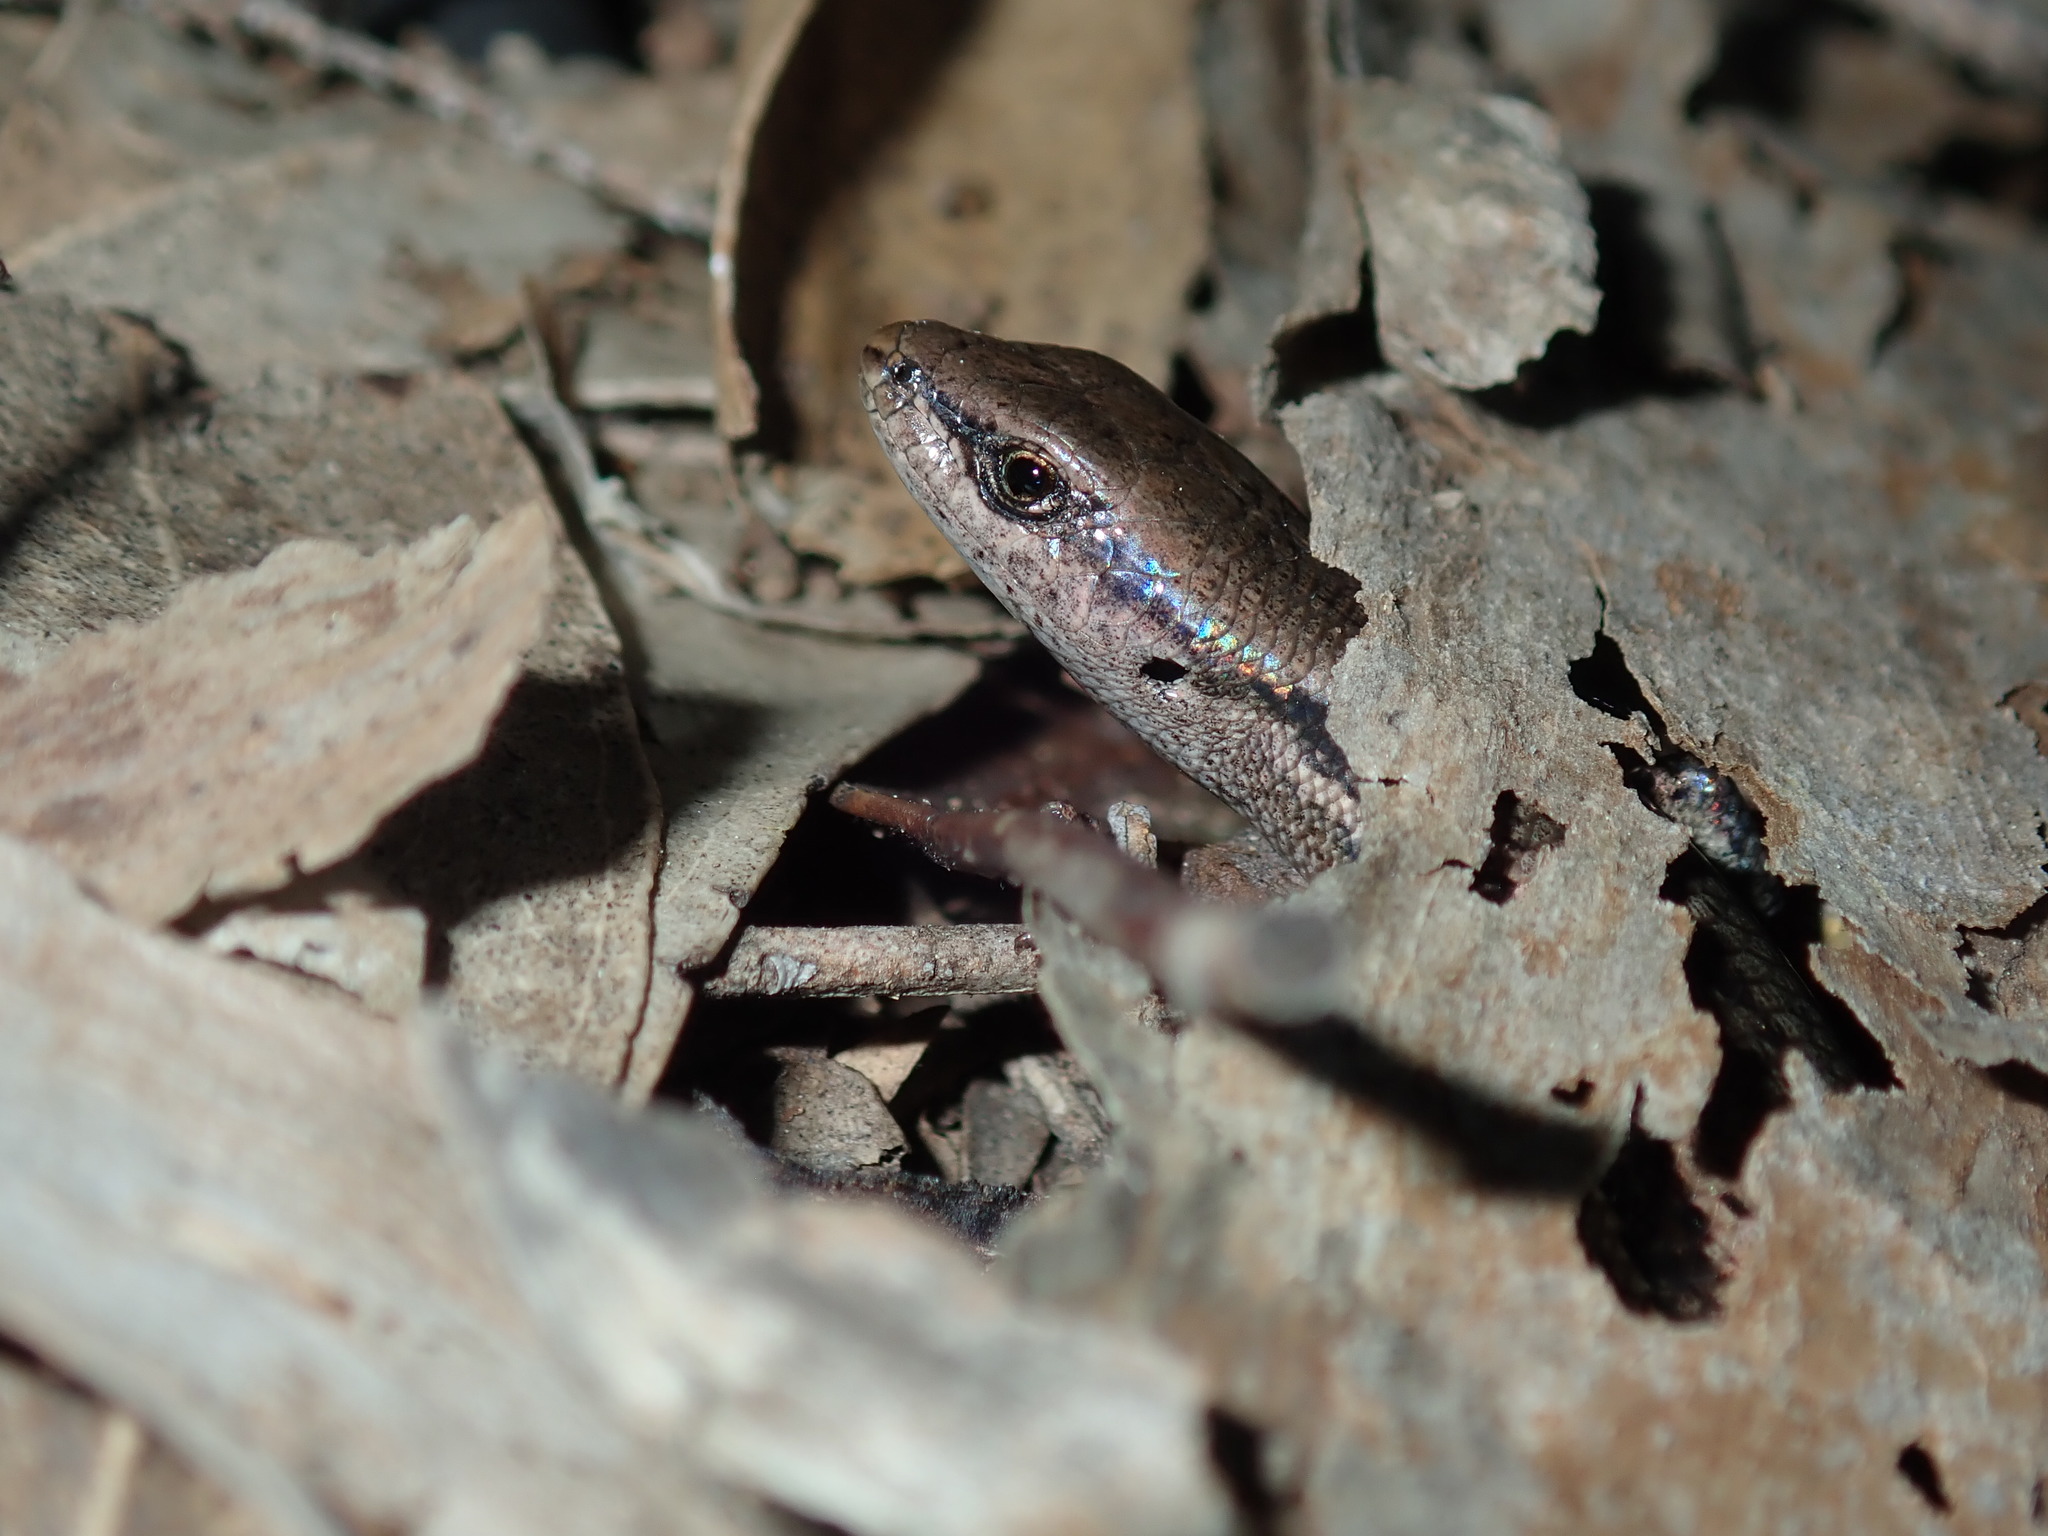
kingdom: Animalia
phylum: Chordata
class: Squamata
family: Scincidae
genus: Lampropholis
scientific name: Lampropholis guichenoti
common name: Garden skink
